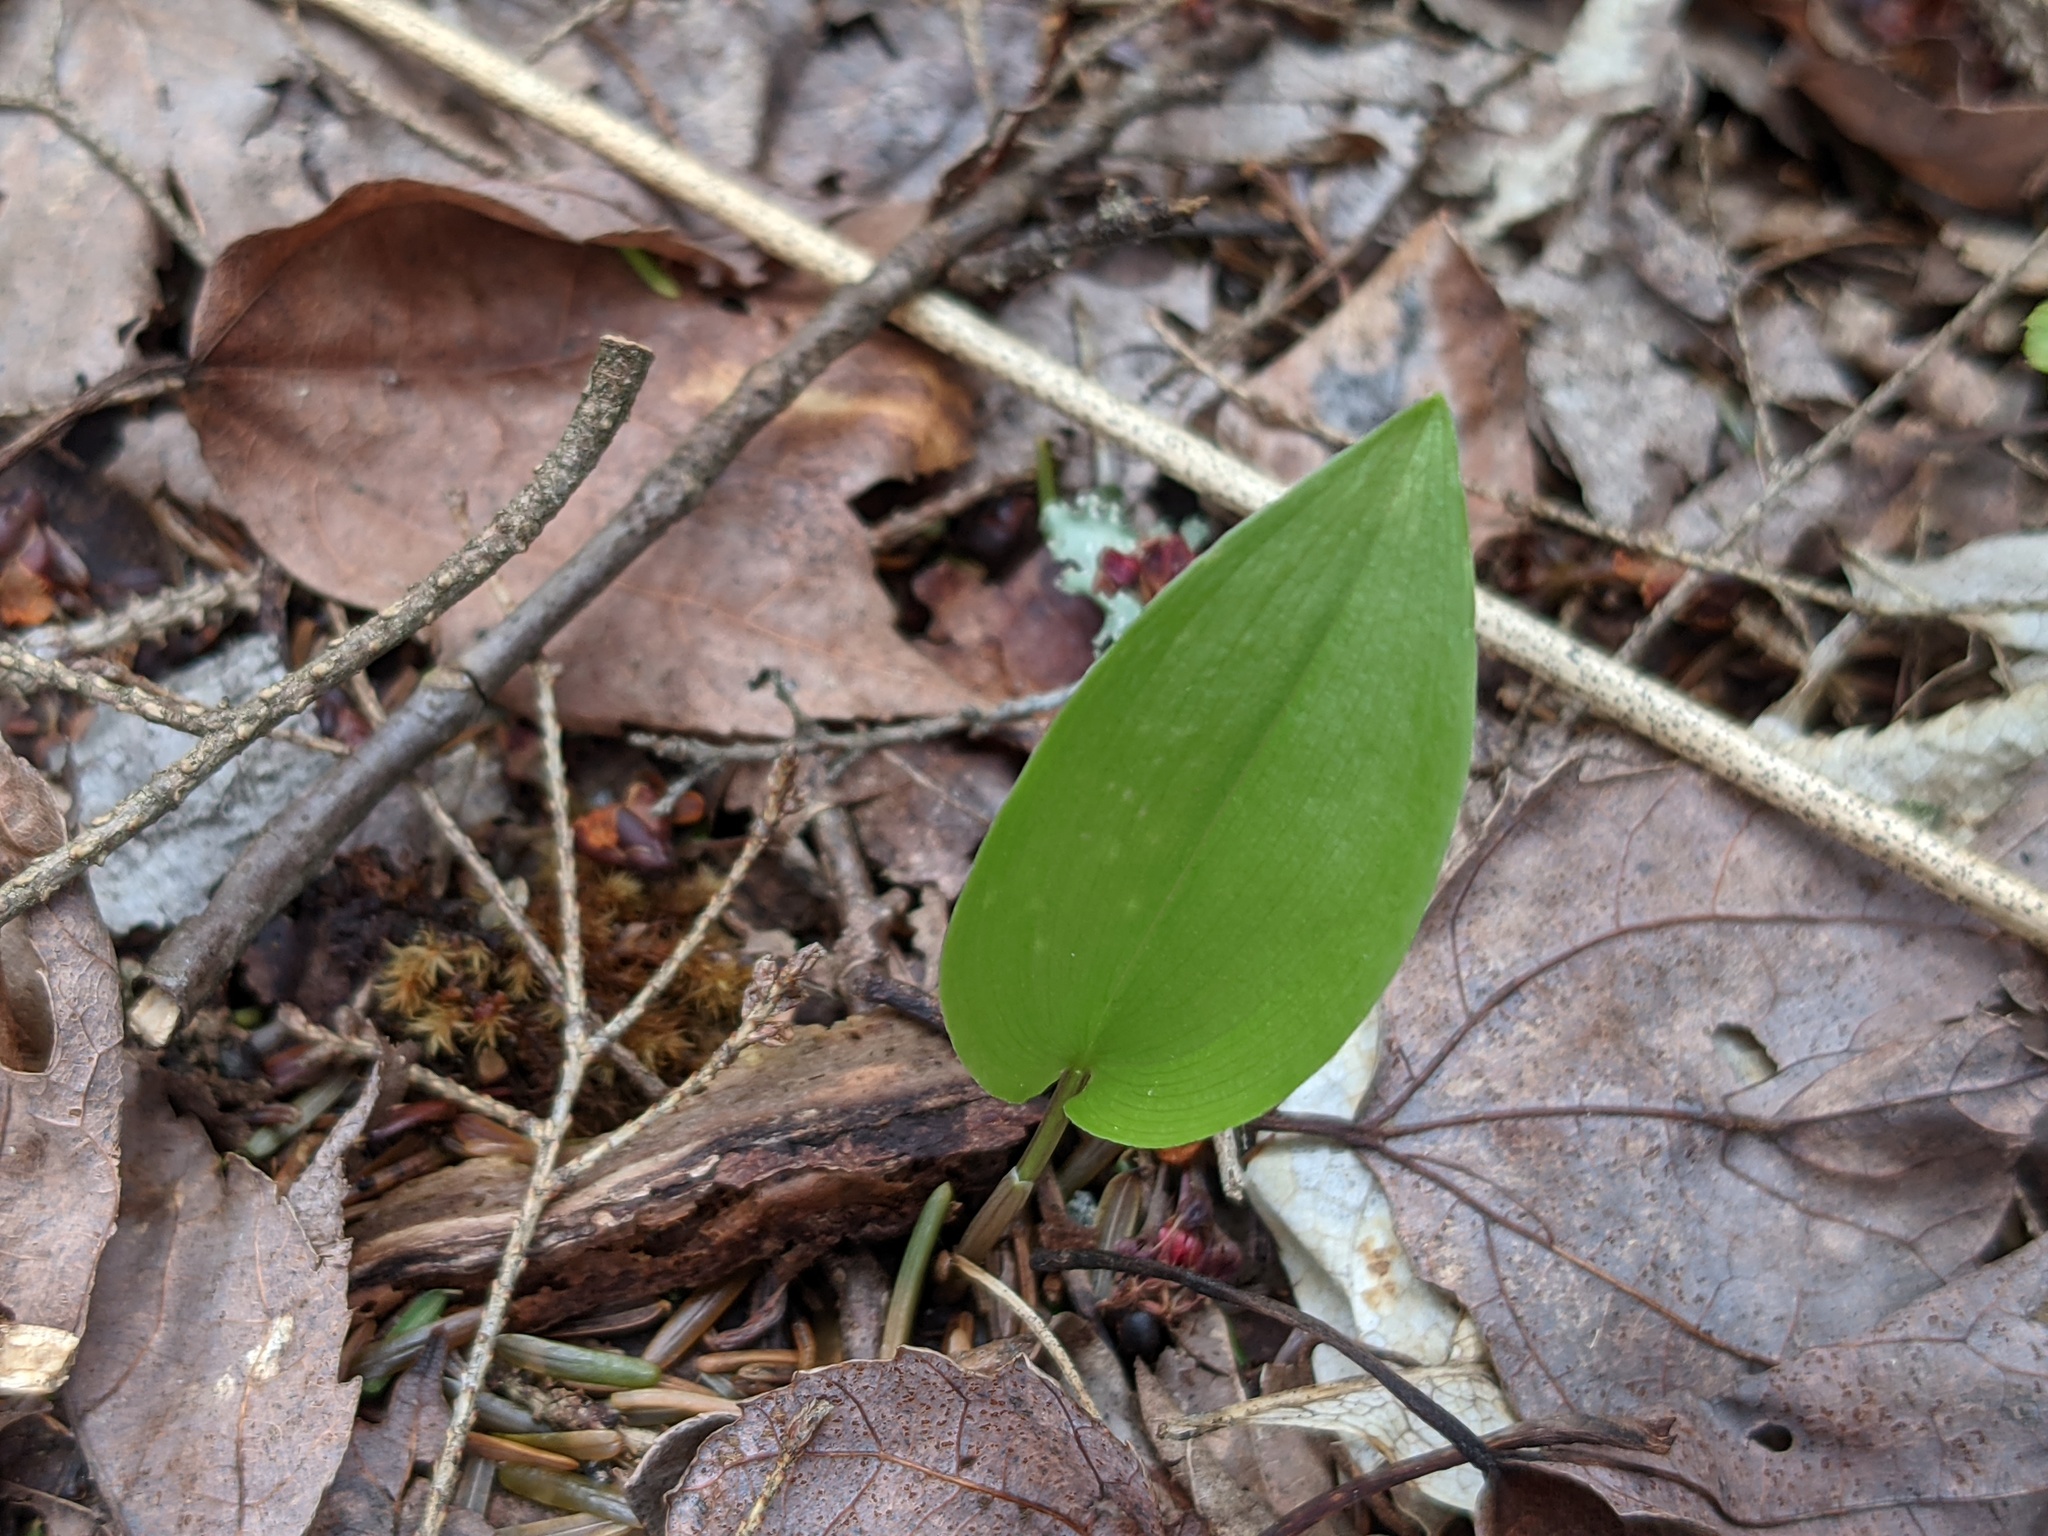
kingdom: Plantae
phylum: Tracheophyta
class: Liliopsida
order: Asparagales
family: Asparagaceae
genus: Maianthemum
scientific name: Maianthemum canadense
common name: False lily-of-the-valley
